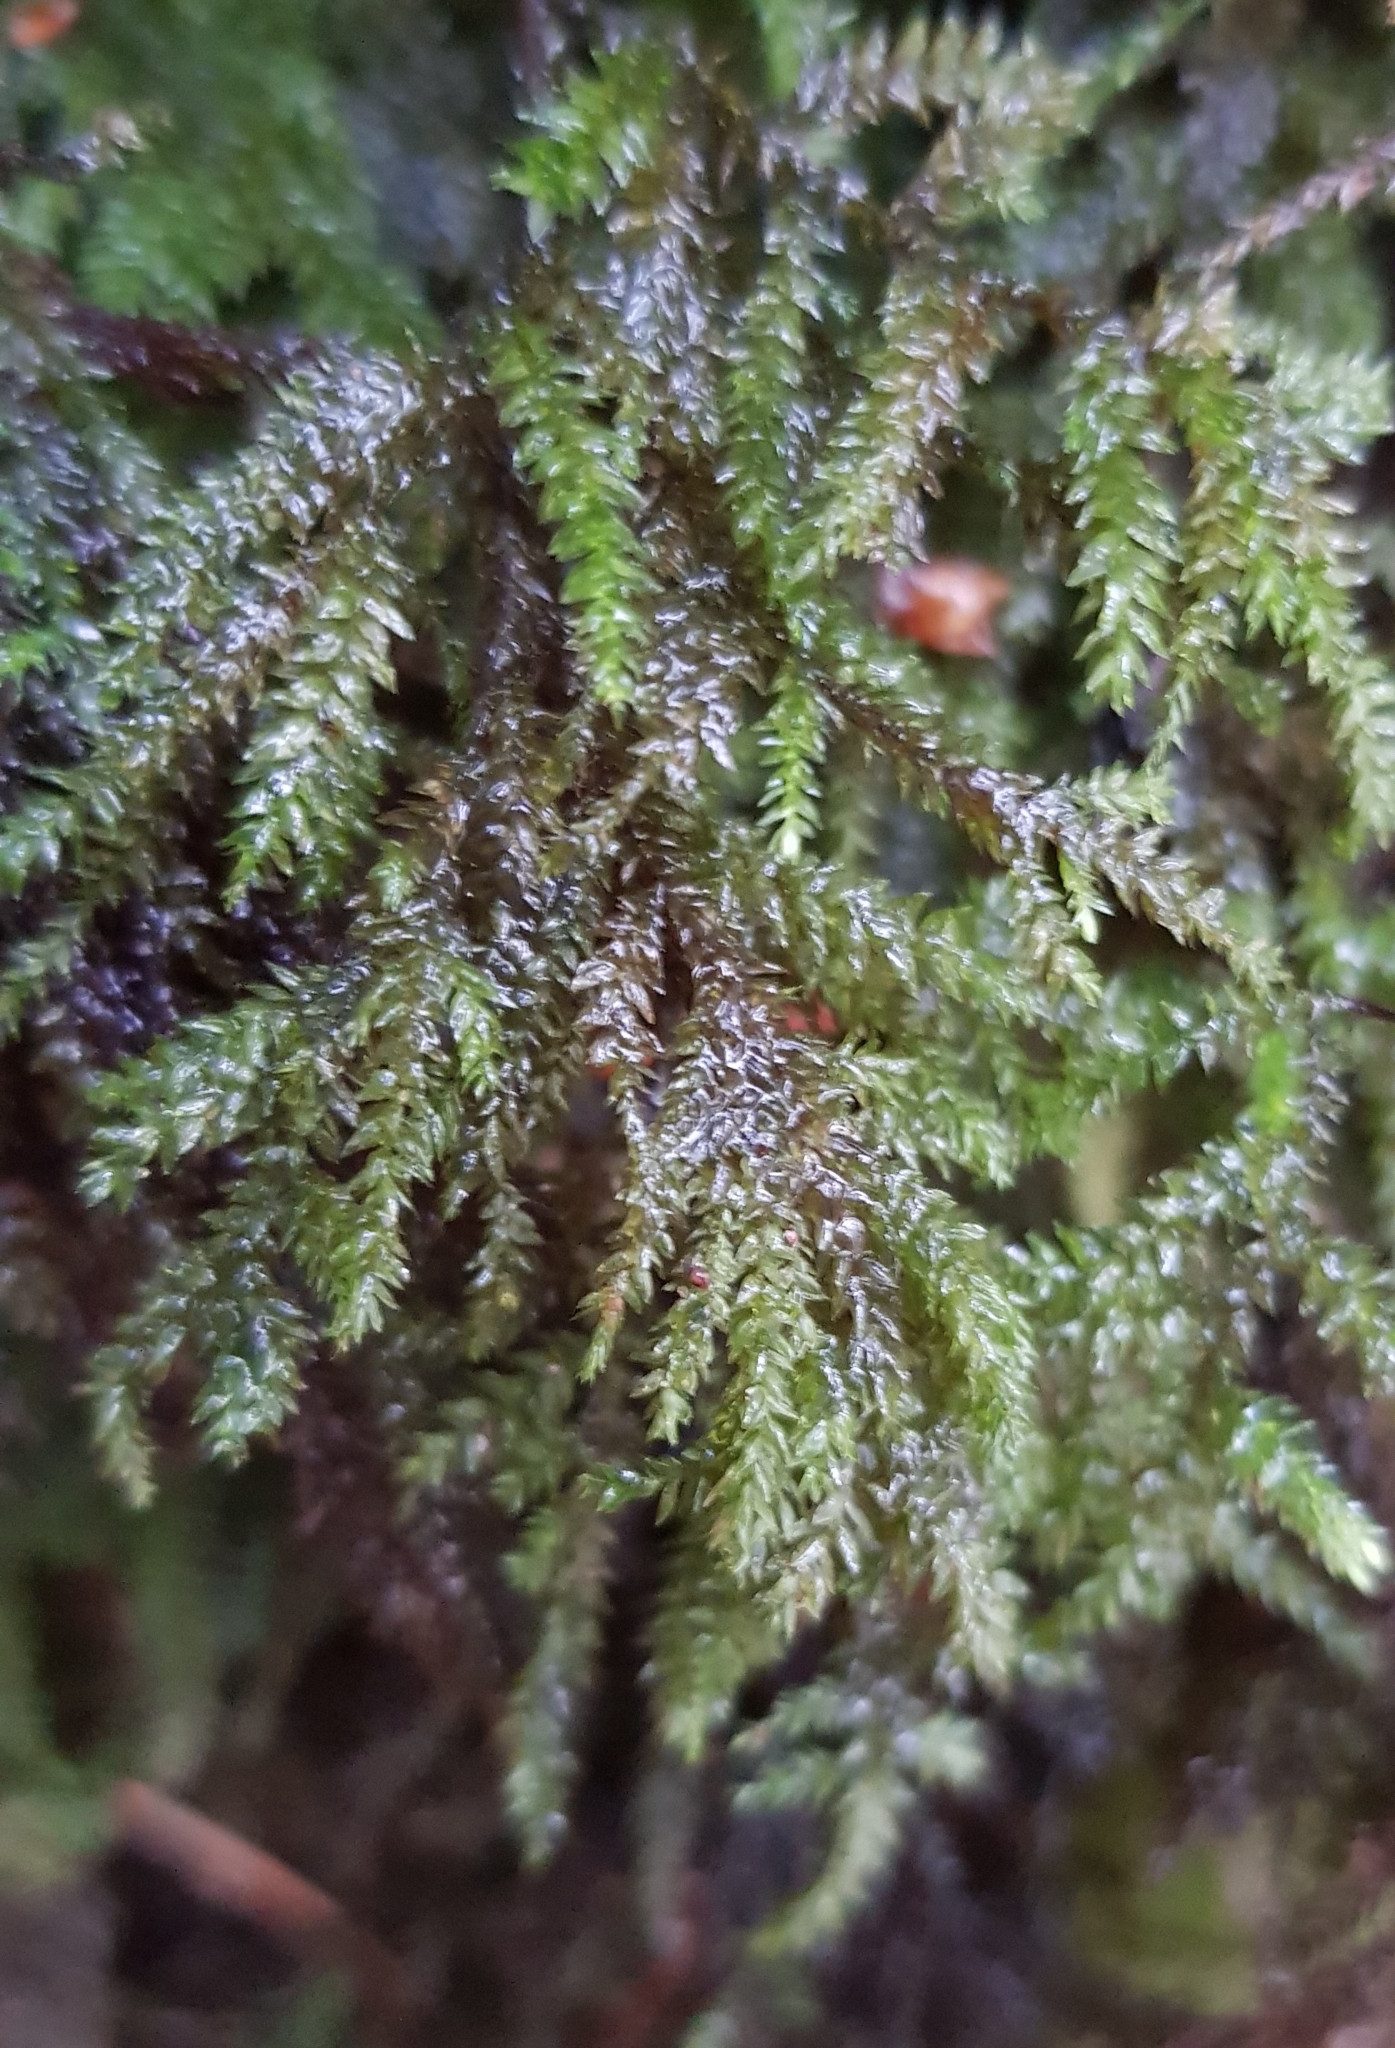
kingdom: Plantae
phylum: Bryophyta
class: Bryopsida
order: Hypnales
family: Neckeraceae
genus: Thamnobryum
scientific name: Thamnobryum alopecurum
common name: Fox-tail feather-moss
